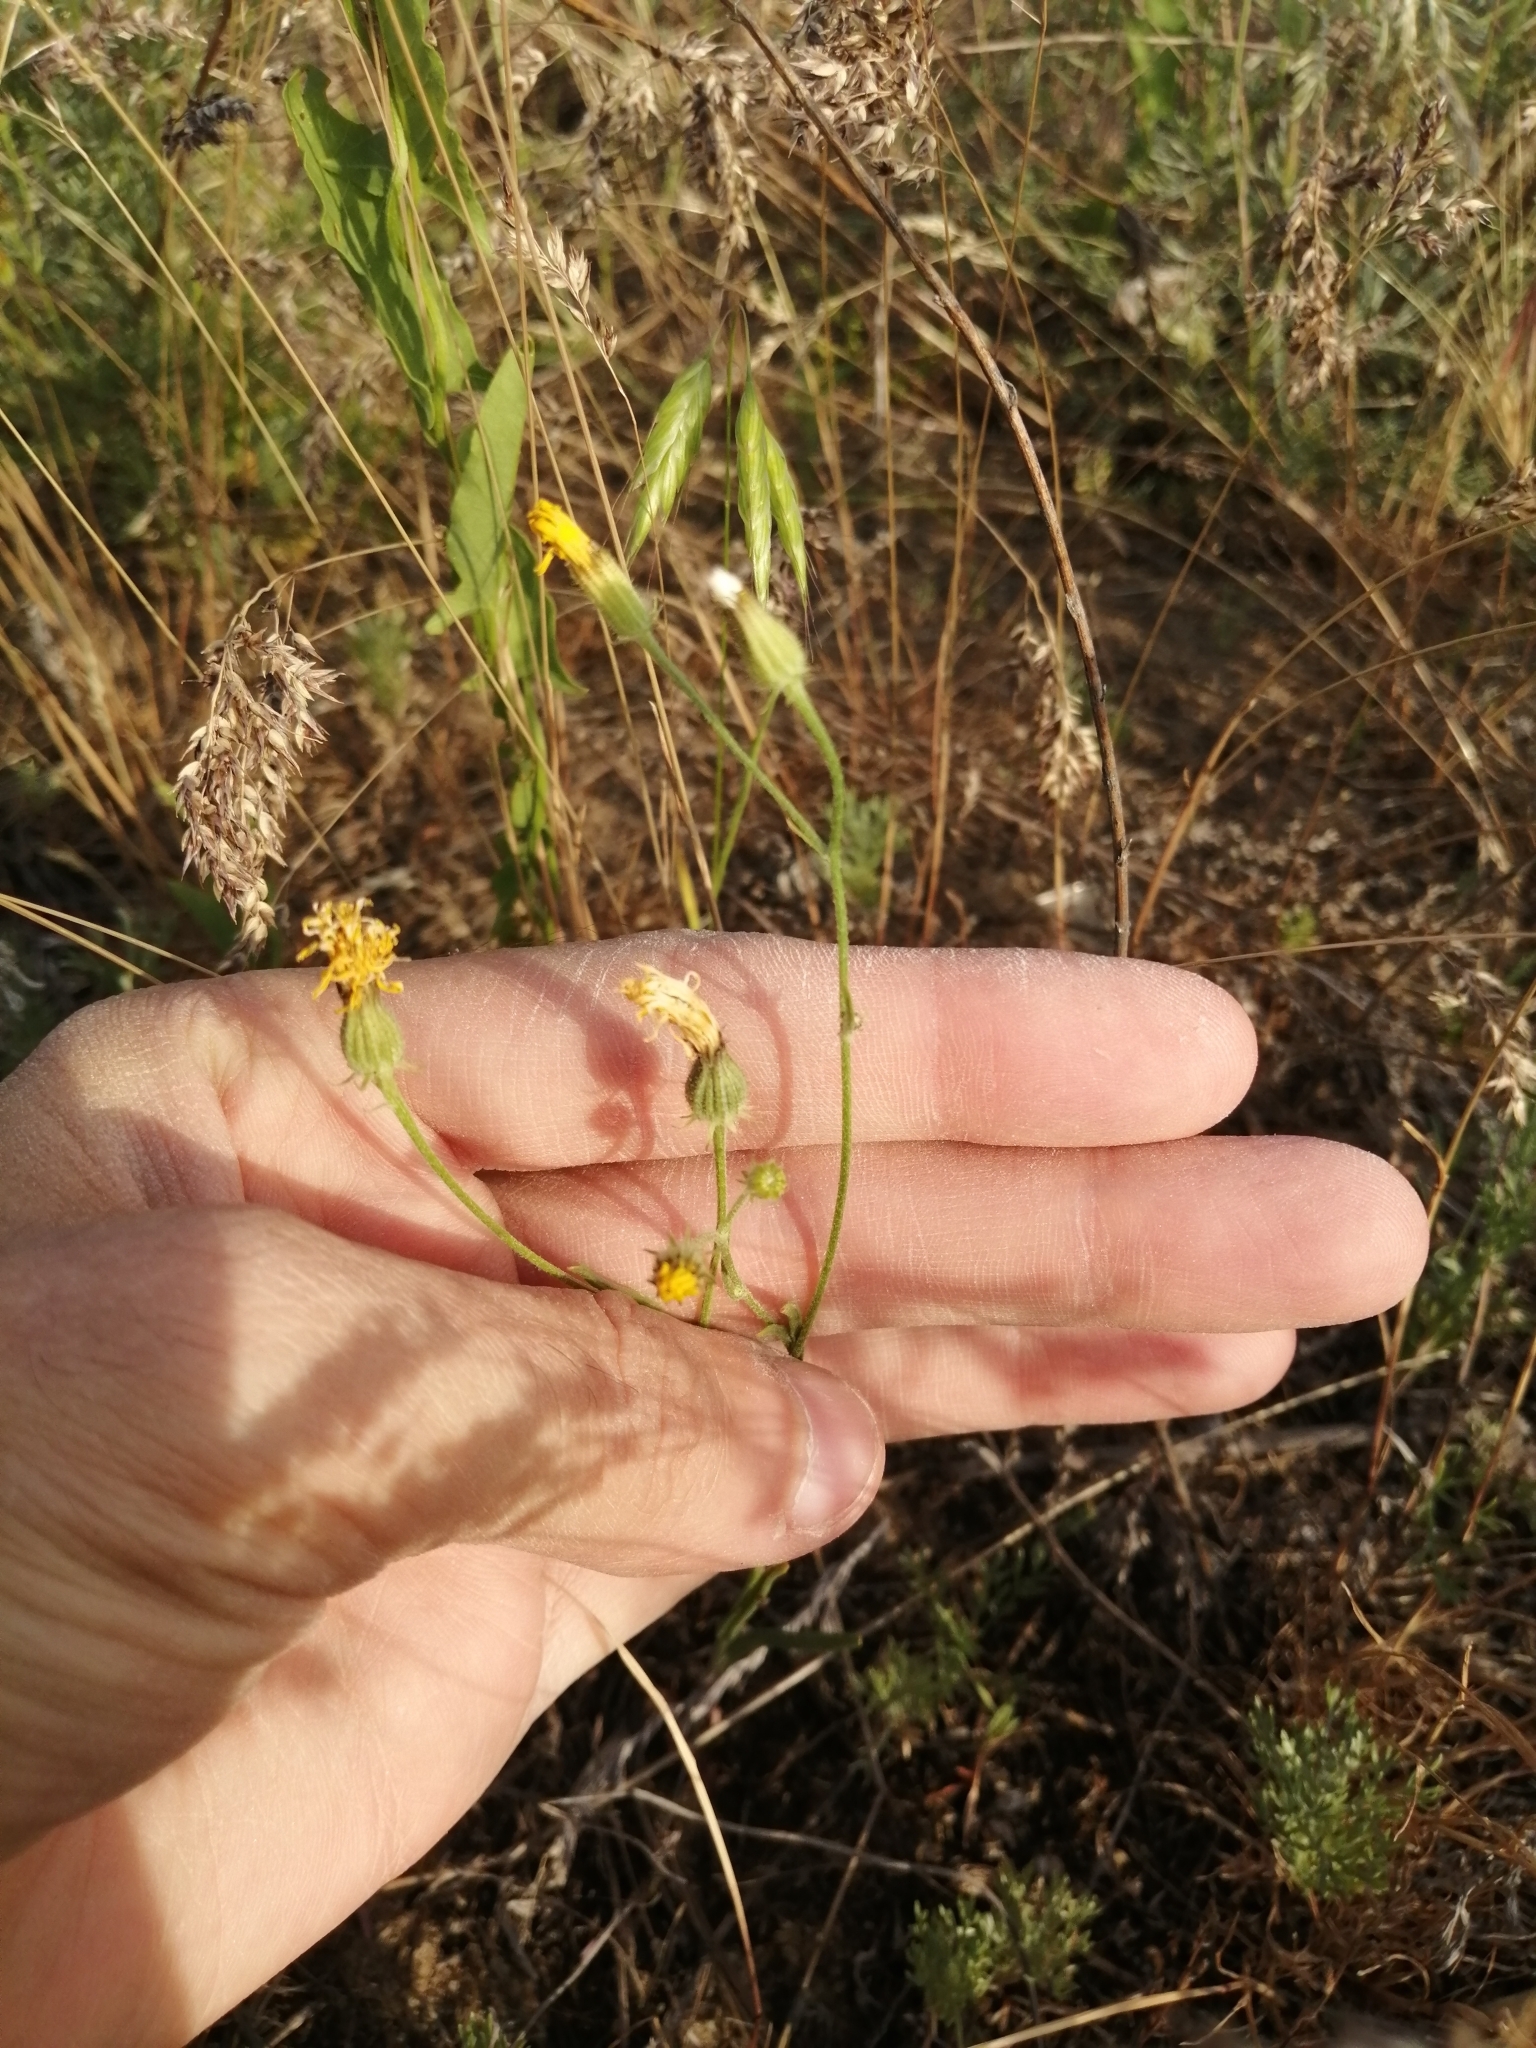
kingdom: Plantae
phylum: Tracheophyta
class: Magnoliopsida
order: Asterales
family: Asteraceae
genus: Crepis
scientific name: Crepis tectorum
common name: Narrow-leaved hawk's-beard
